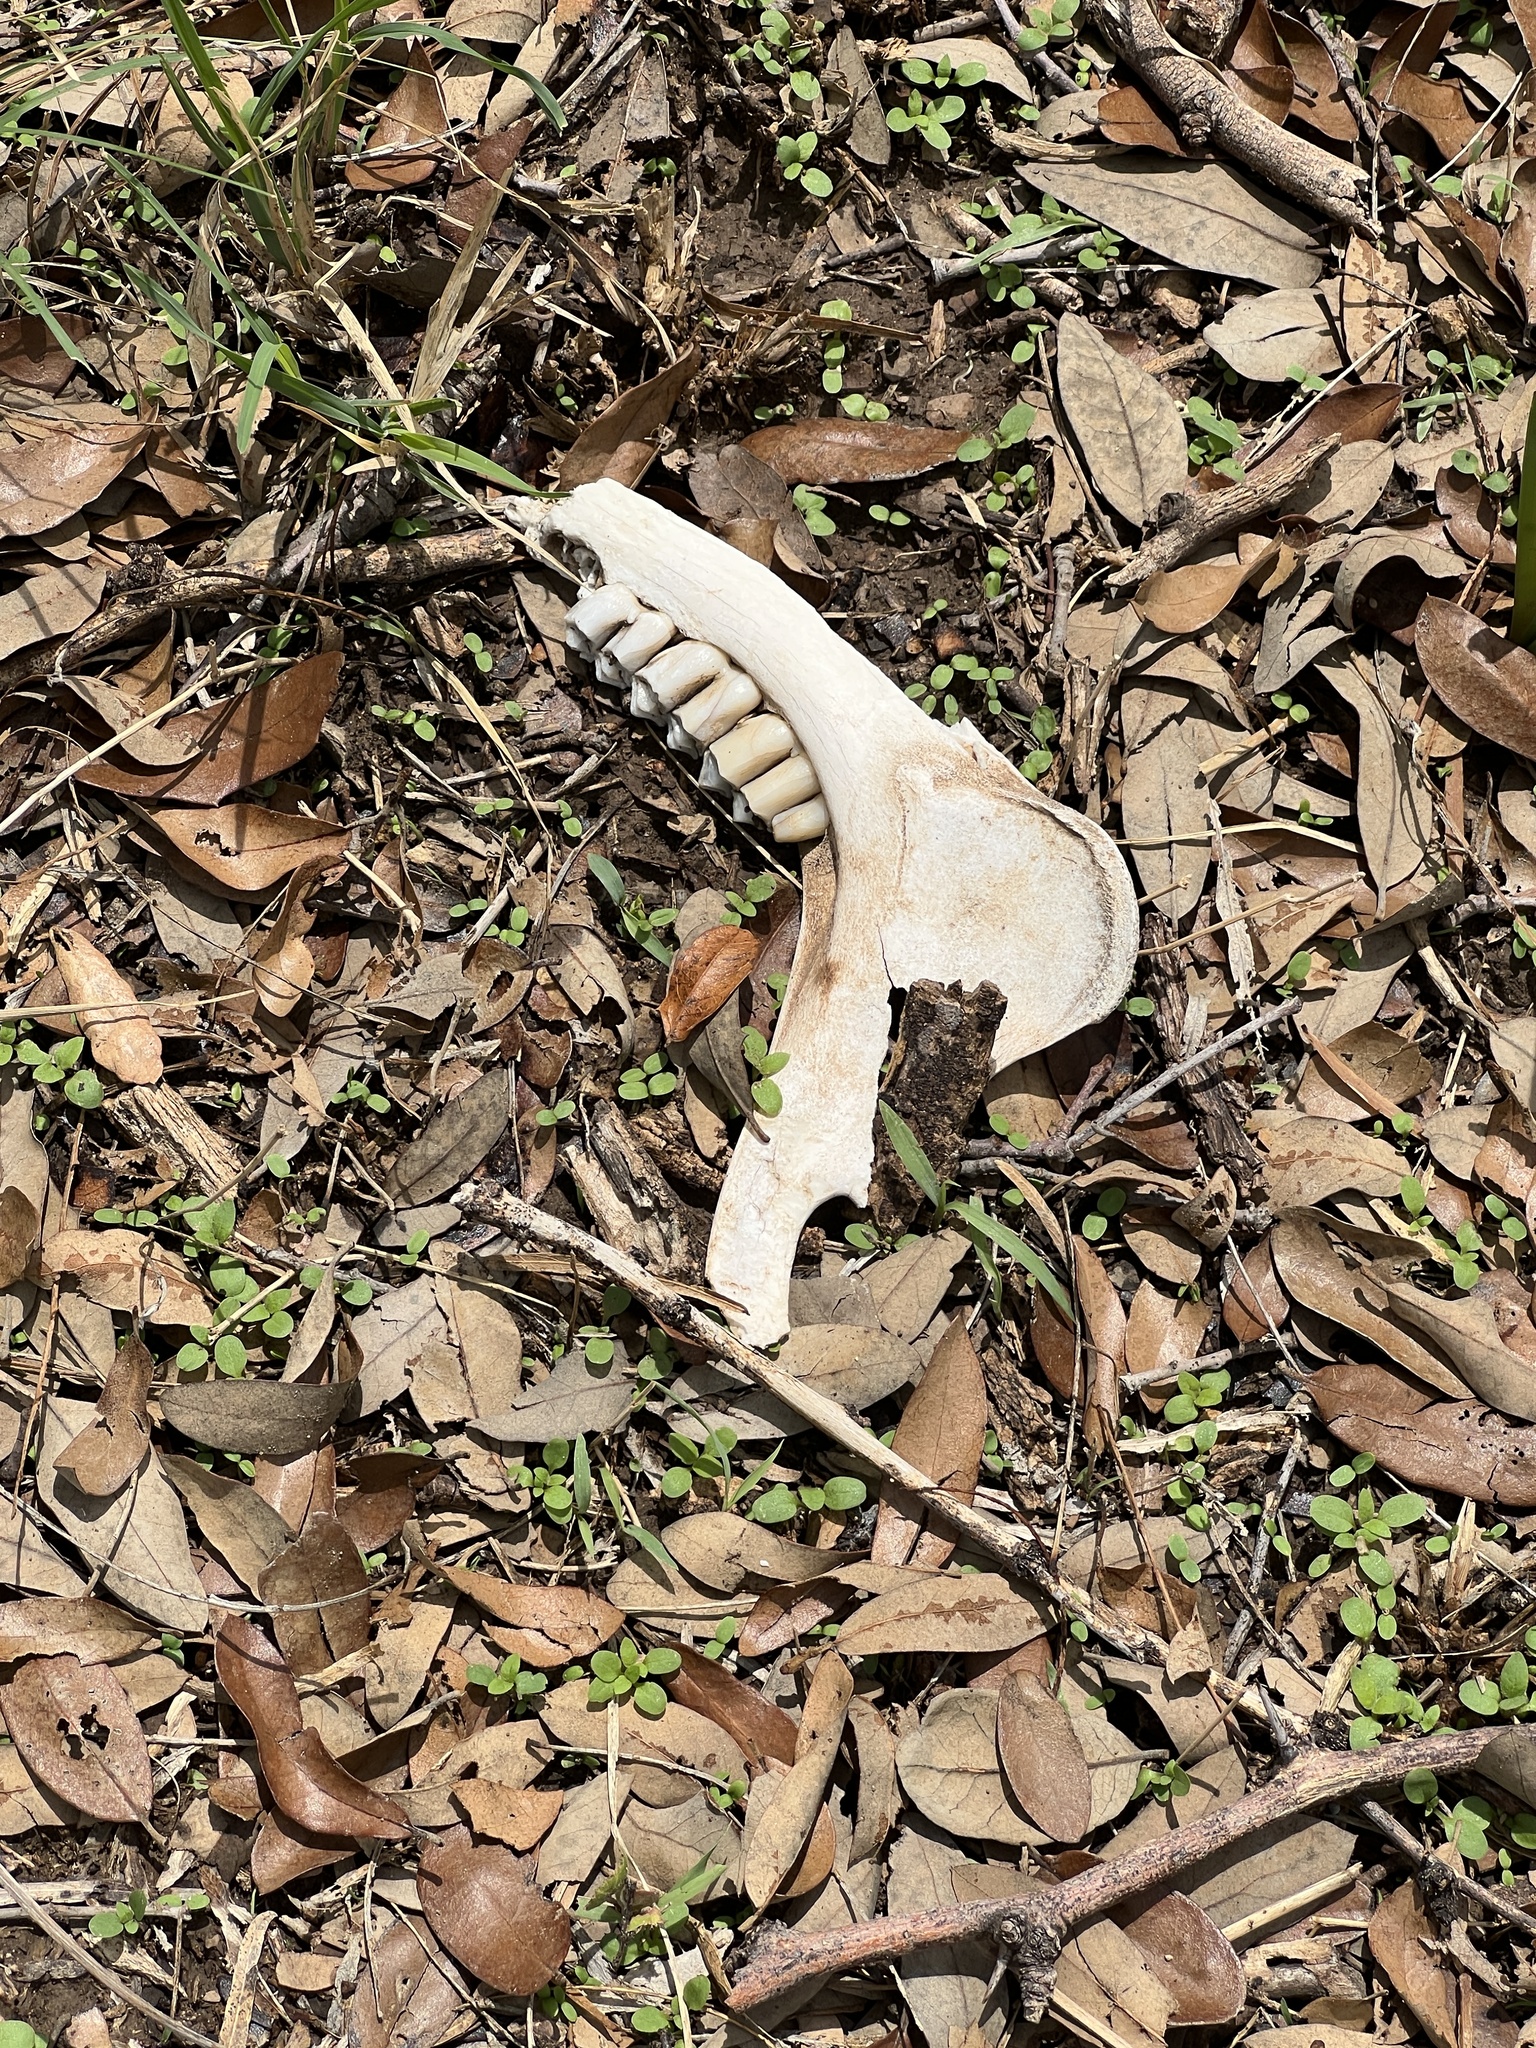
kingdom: Animalia
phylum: Chordata
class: Mammalia
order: Artiodactyla
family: Cervidae
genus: Odocoileus
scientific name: Odocoileus virginianus
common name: White-tailed deer
